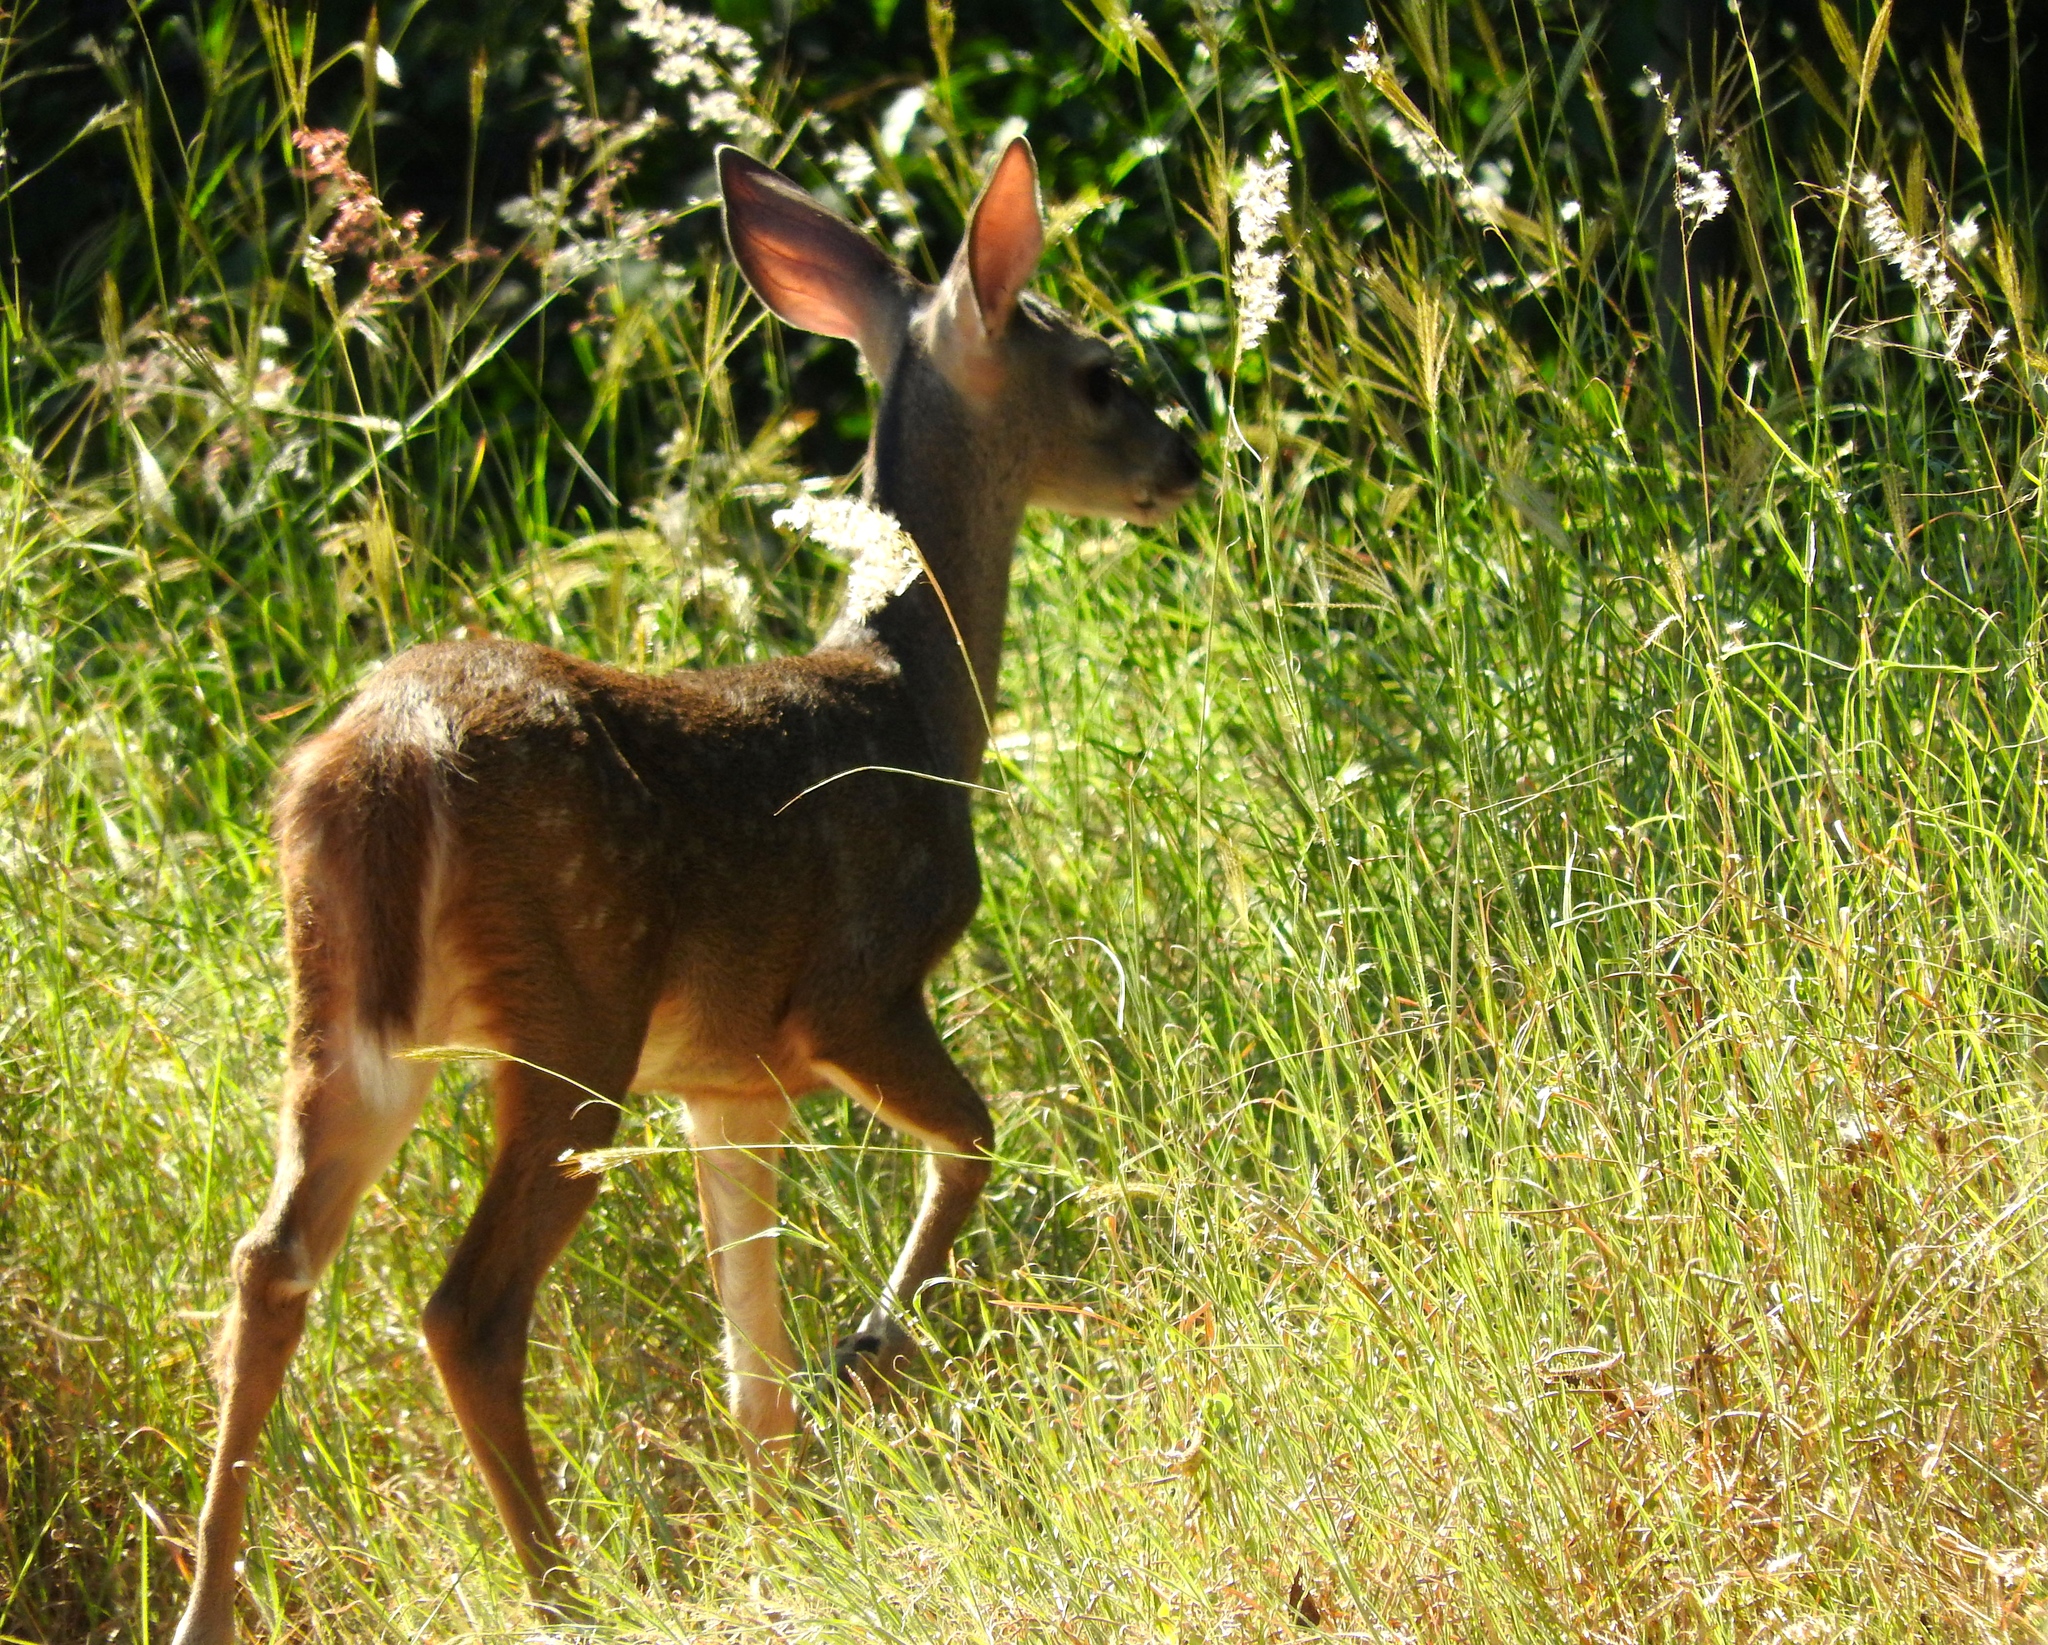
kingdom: Animalia
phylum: Chordata
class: Mammalia
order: Artiodactyla
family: Cervidae
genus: Odocoileus
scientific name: Odocoileus virginianus
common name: White-tailed deer
